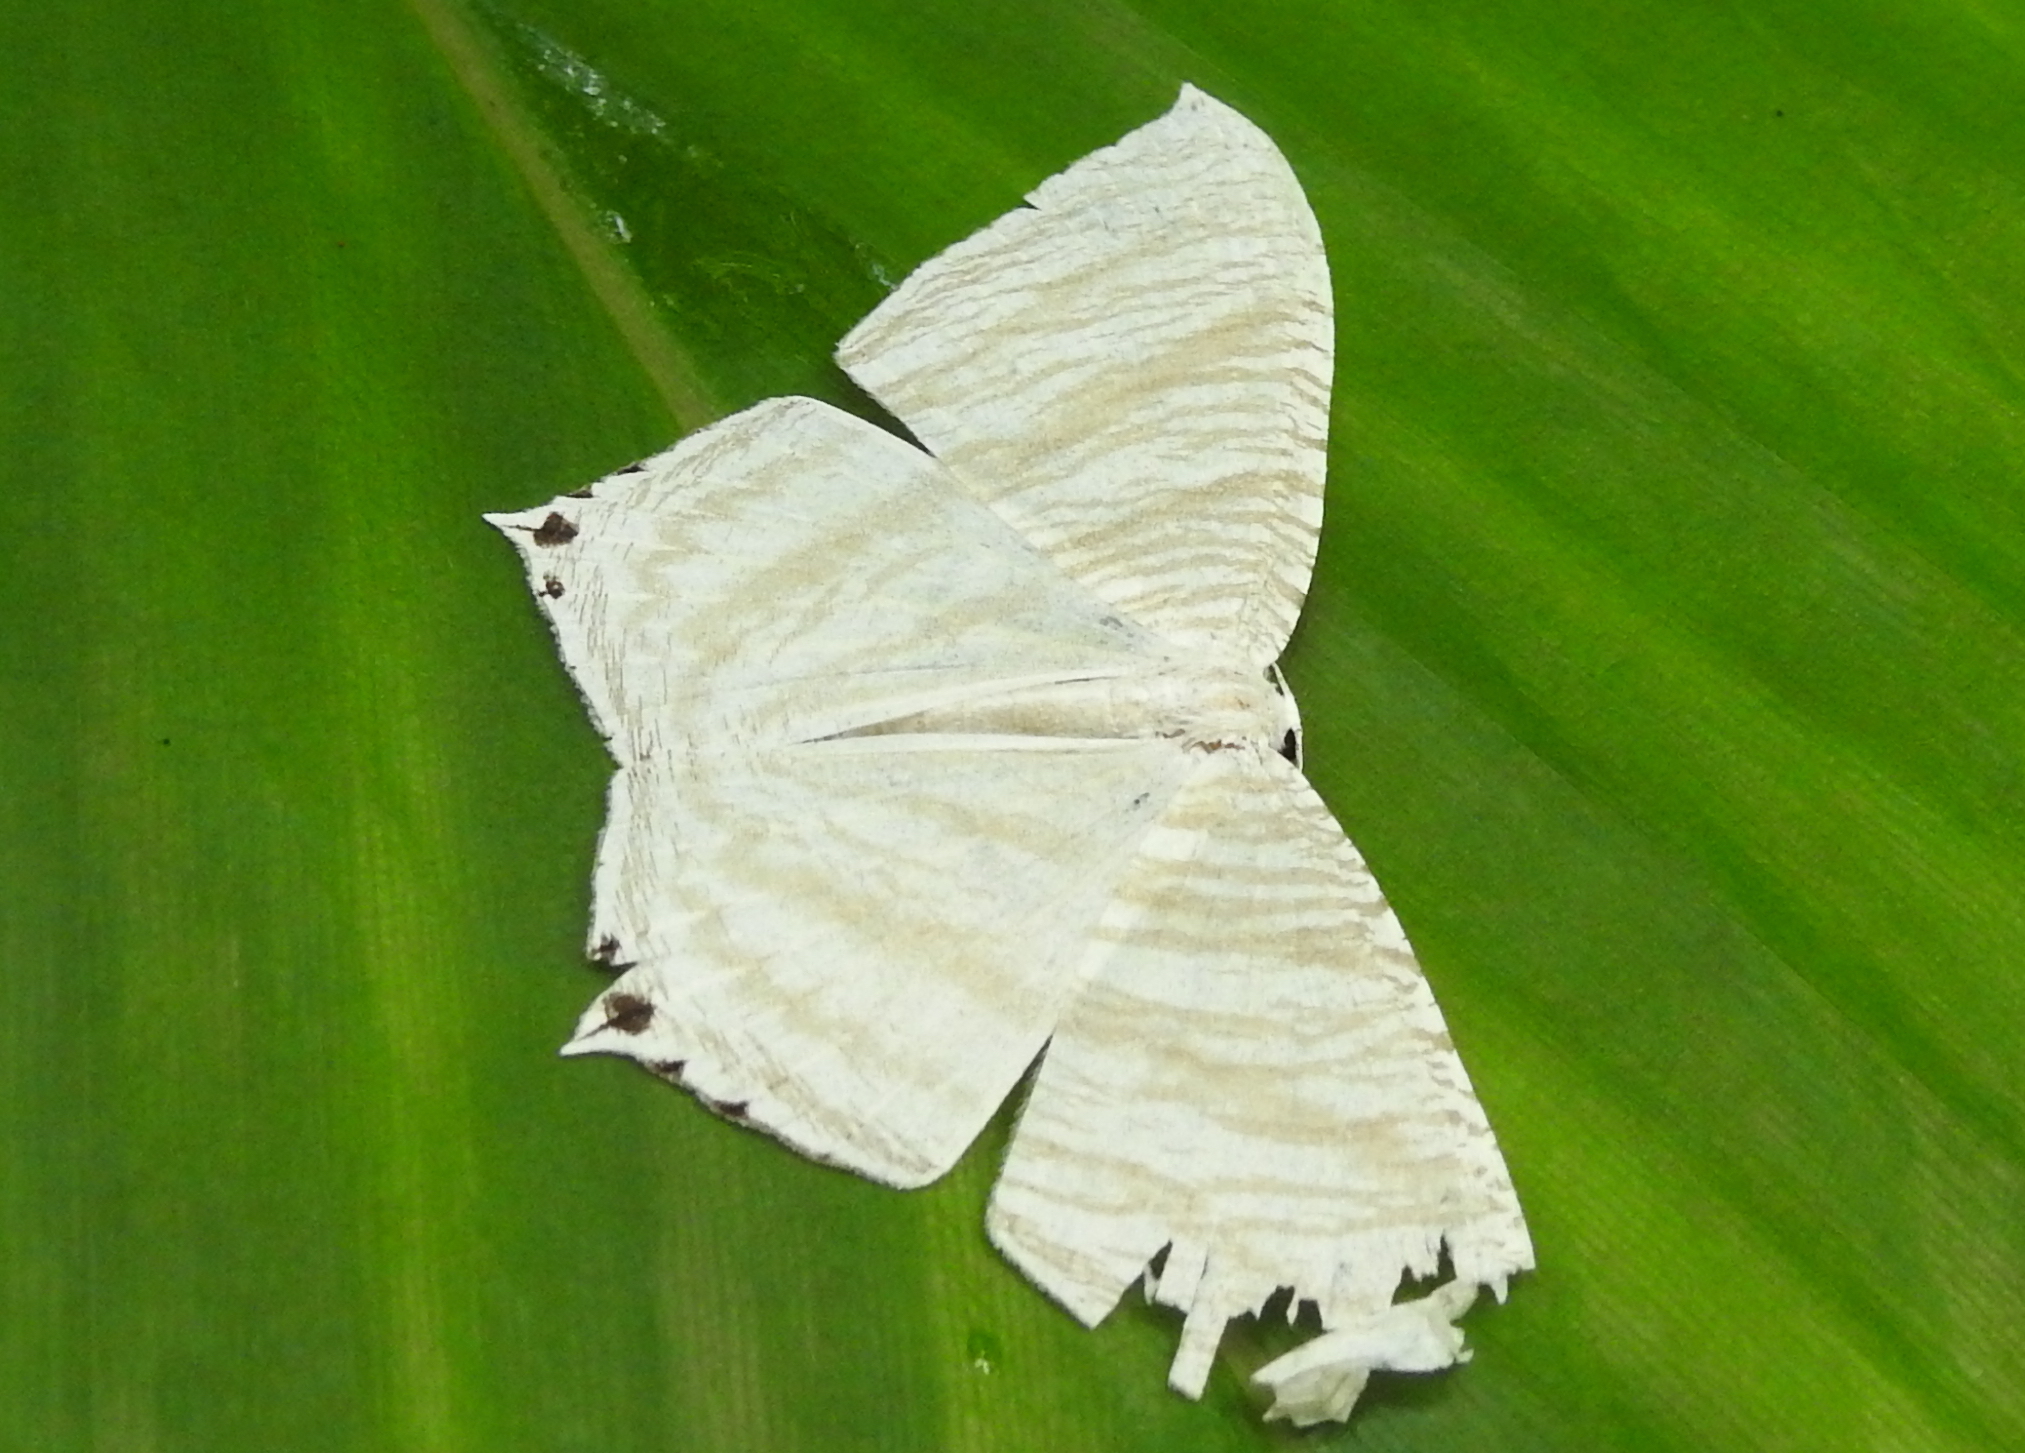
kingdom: Animalia
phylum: Arthropoda
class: Insecta
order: Lepidoptera
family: Uraniidae
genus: Micronia
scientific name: Micronia aculeata
